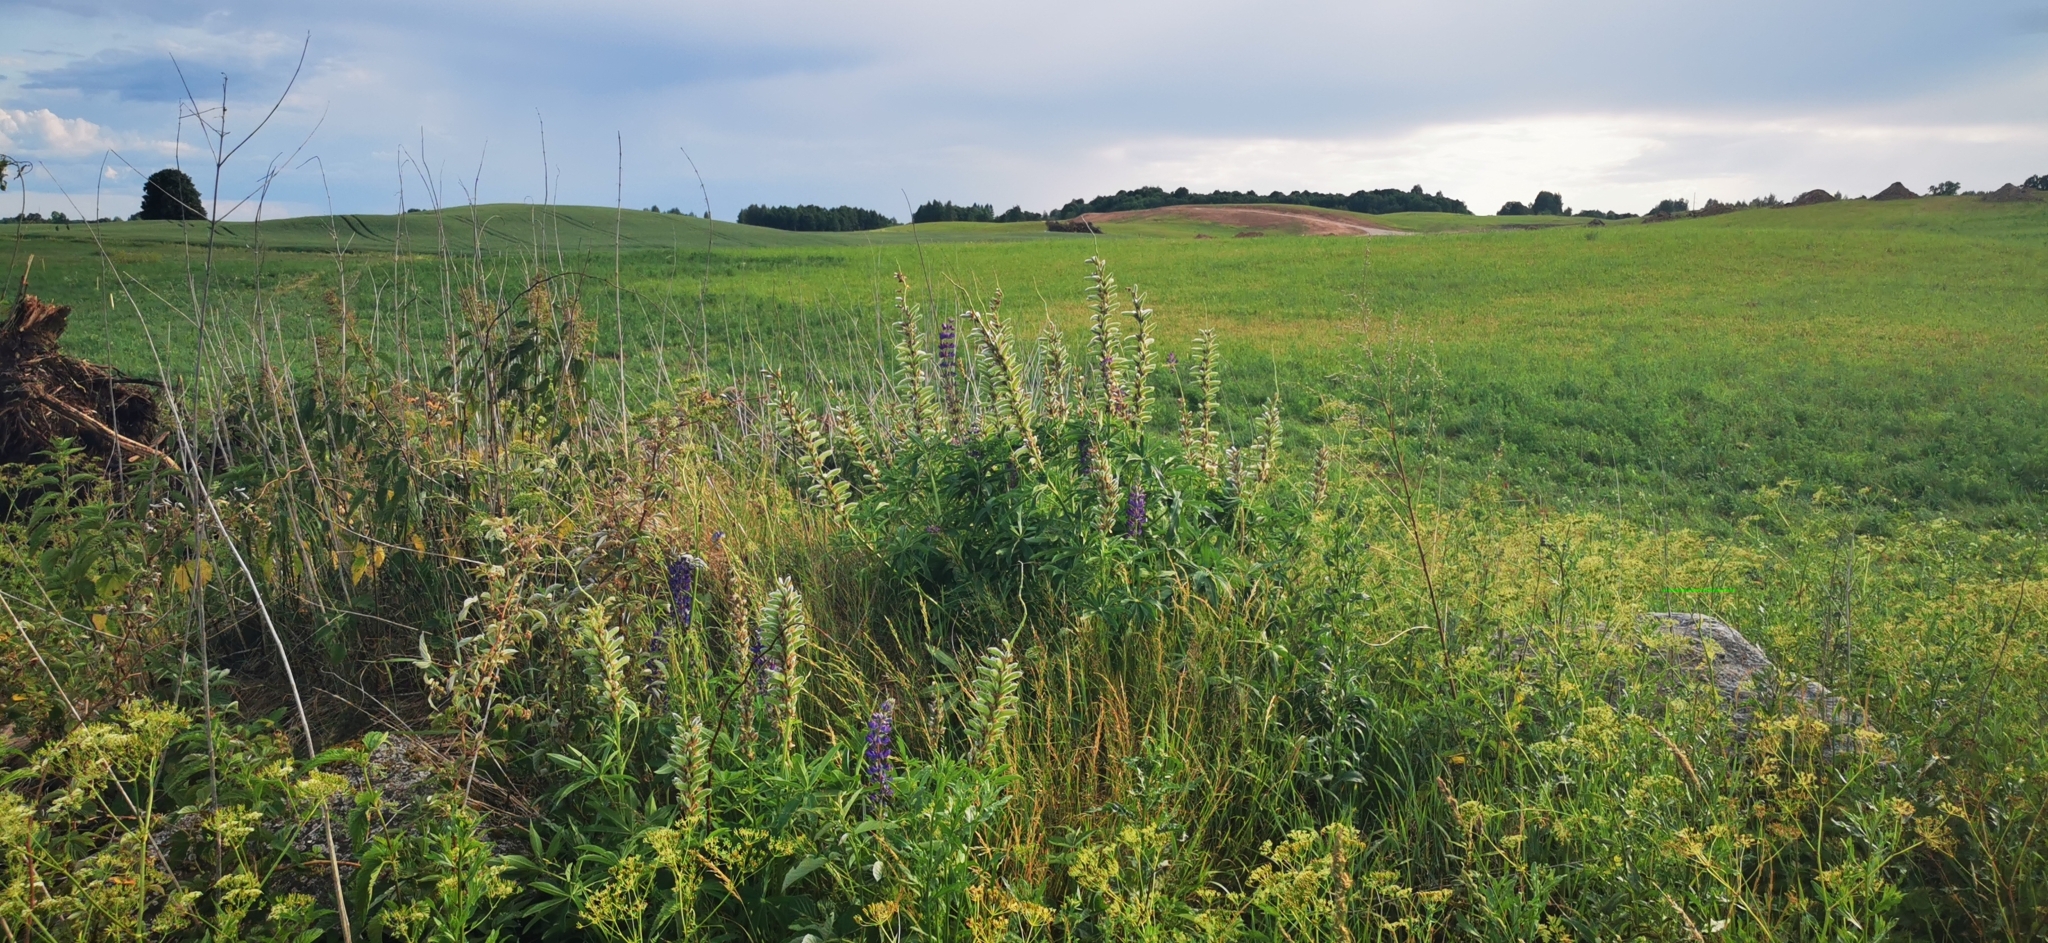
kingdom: Plantae
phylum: Tracheophyta
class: Magnoliopsida
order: Fabales
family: Fabaceae
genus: Lupinus
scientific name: Lupinus polyphyllus
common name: Garden lupin
